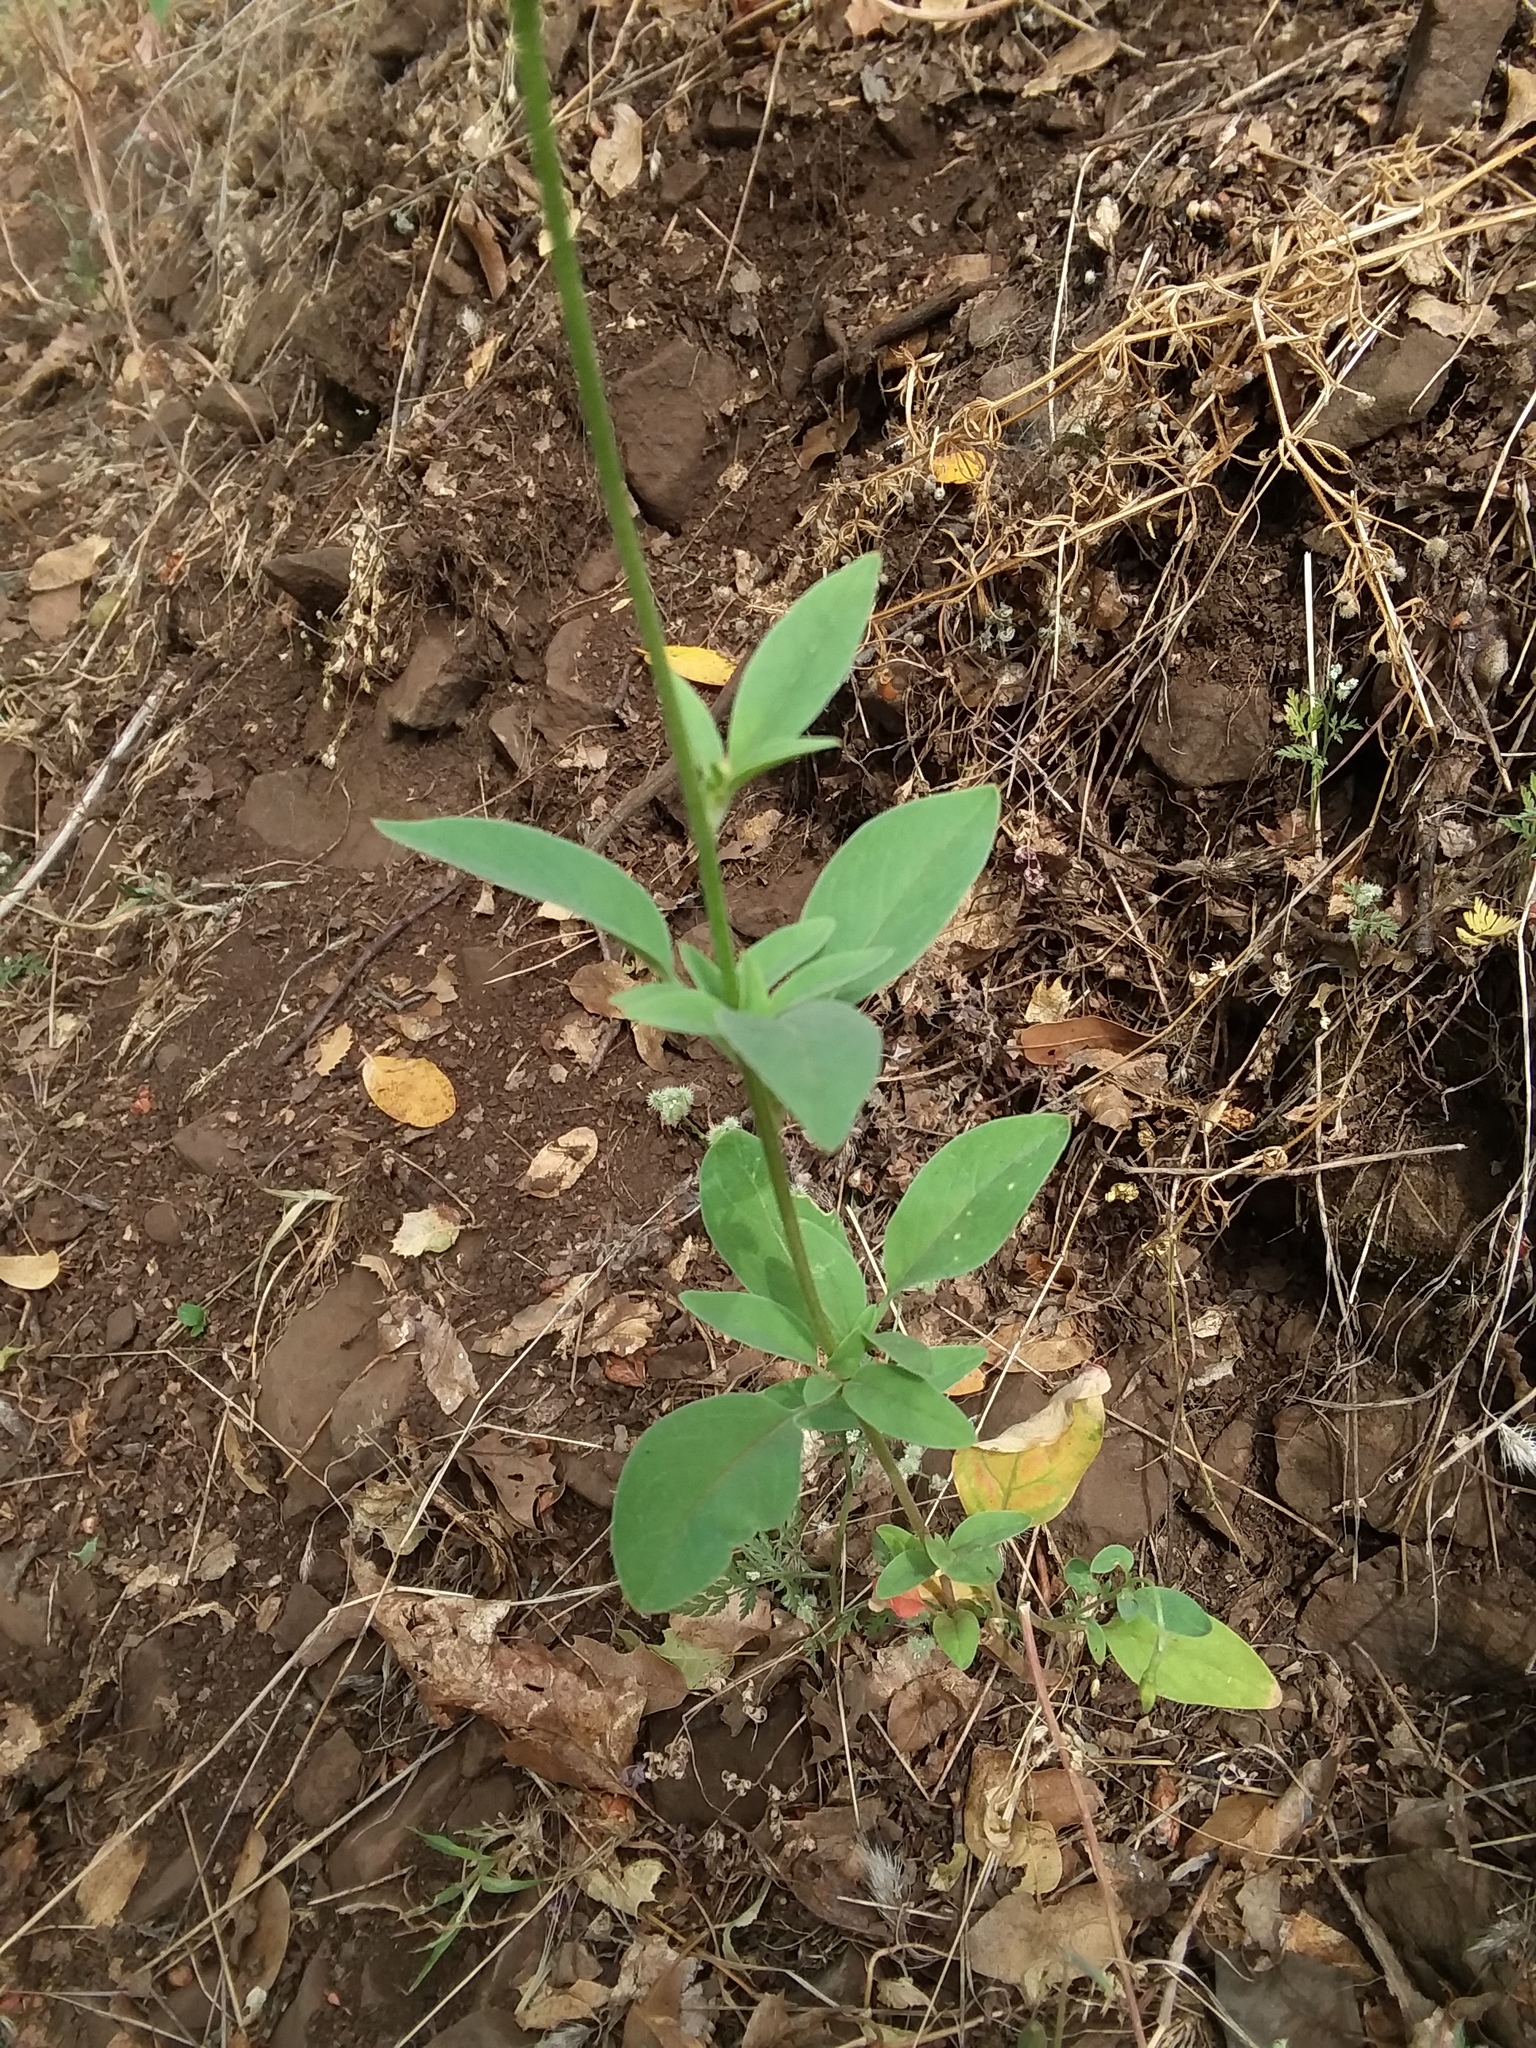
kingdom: Plantae
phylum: Tracheophyta
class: Magnoliopsida
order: Myrtales
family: Onagraceae
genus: Clarkia
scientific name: Clarkia rhomboidea
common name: Broadleaf clarkia
